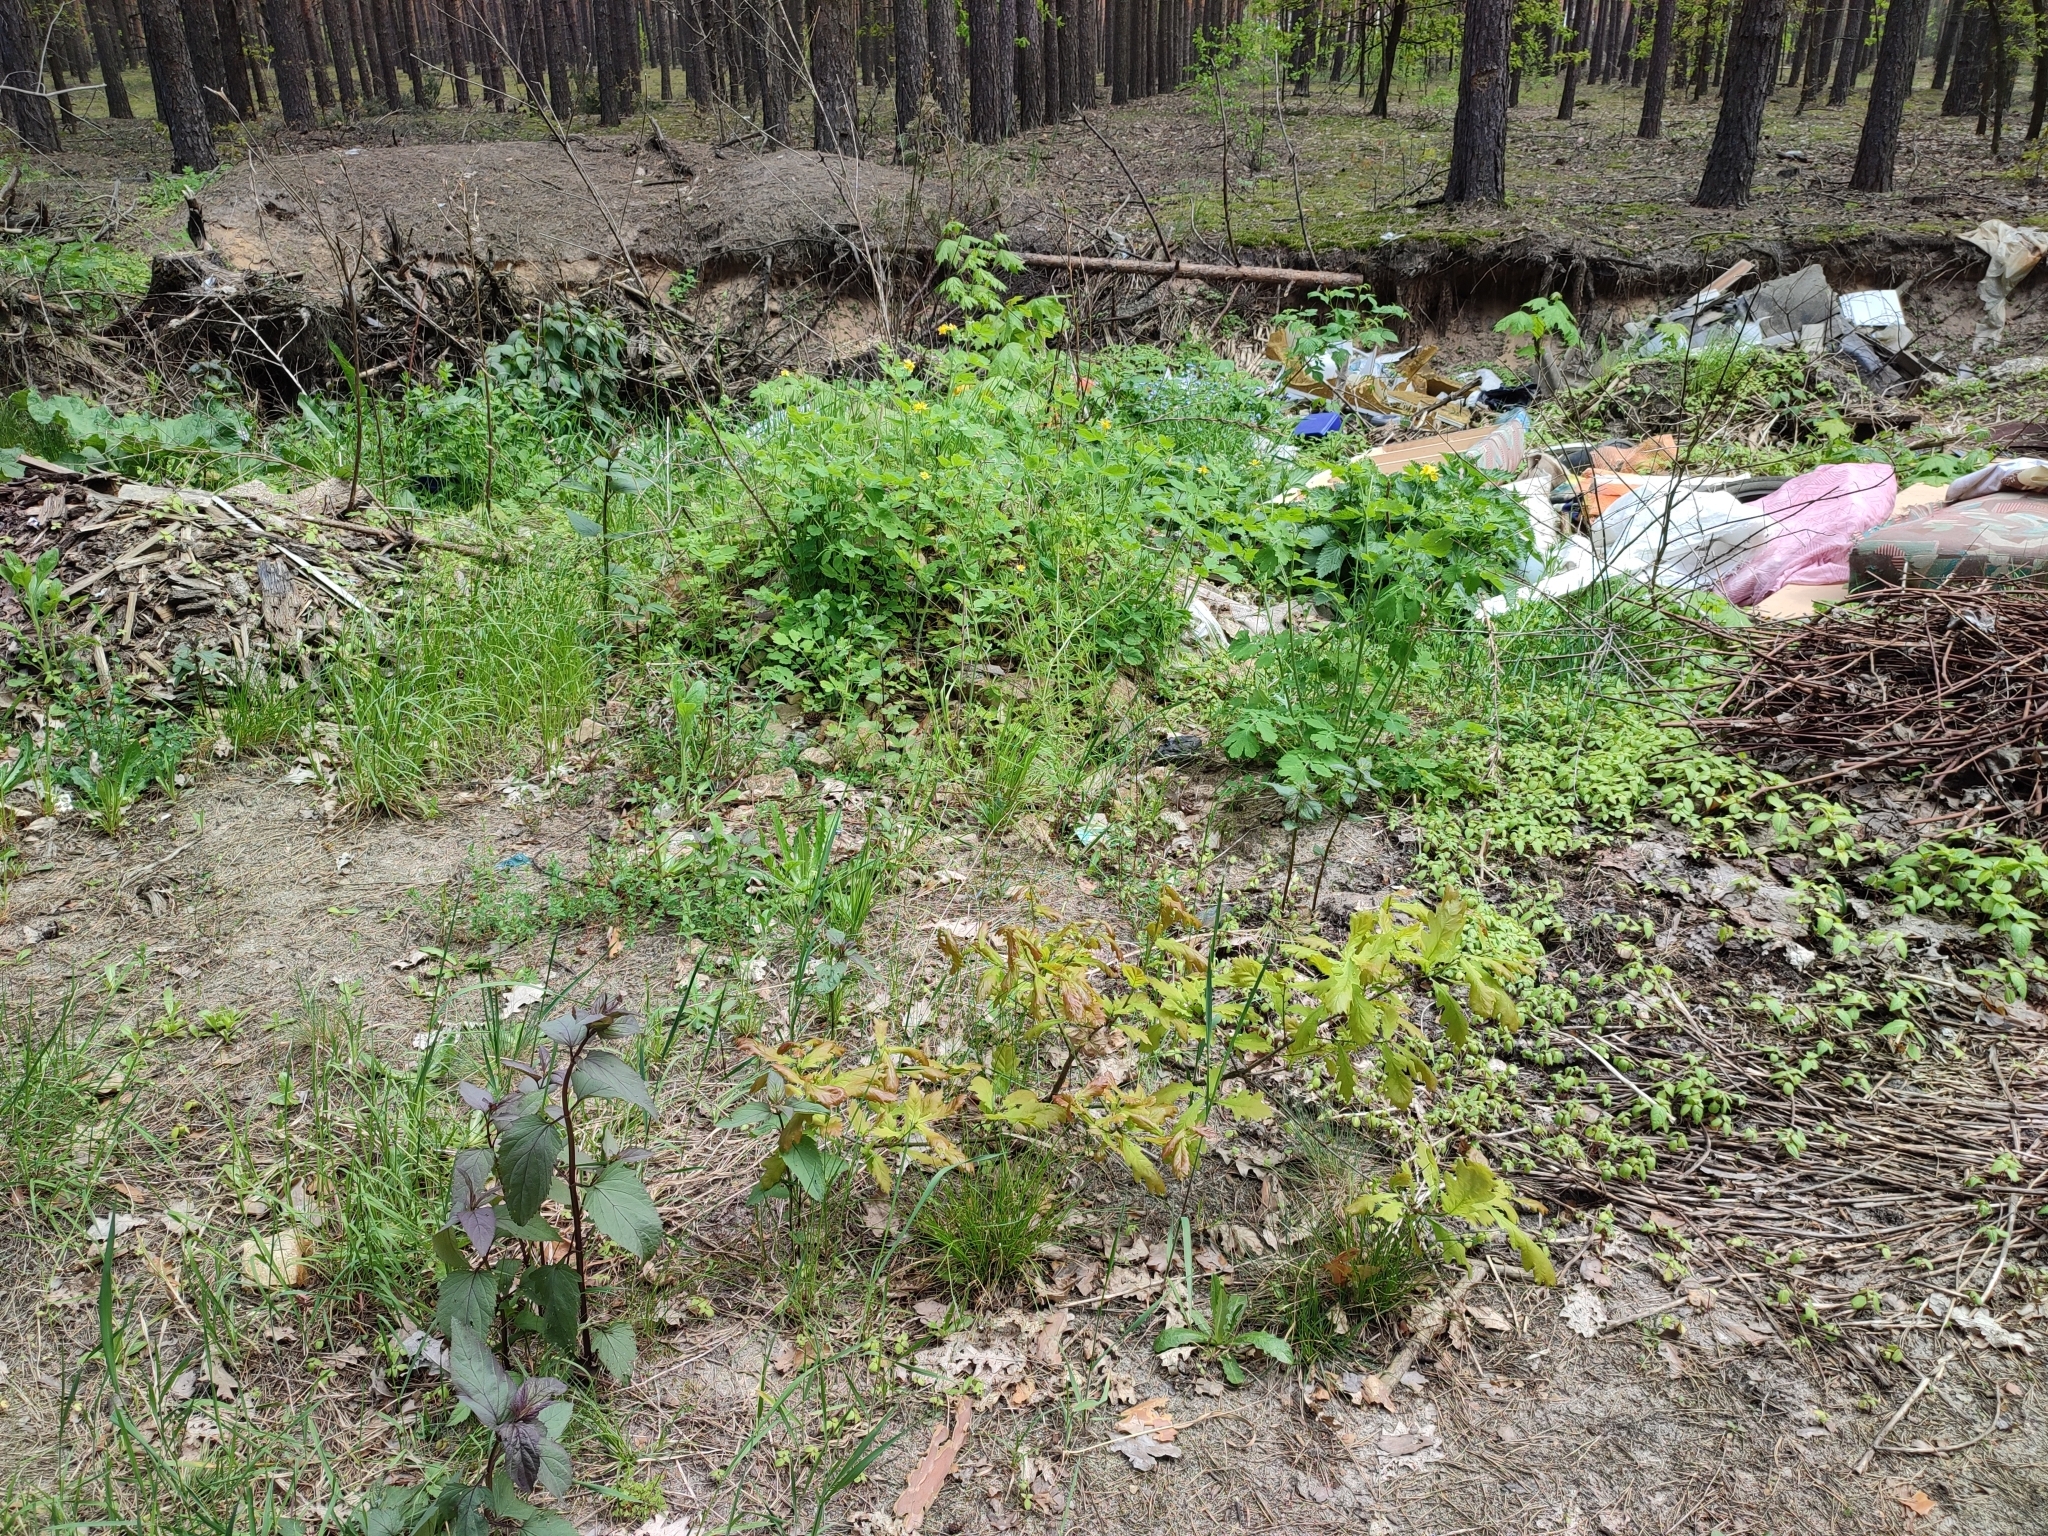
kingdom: Plantae
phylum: Tracheophyta
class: Magnoliopsida
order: Fagales
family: Fagaceae
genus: Quercus
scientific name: Quercus robur
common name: Pedunculate oak
